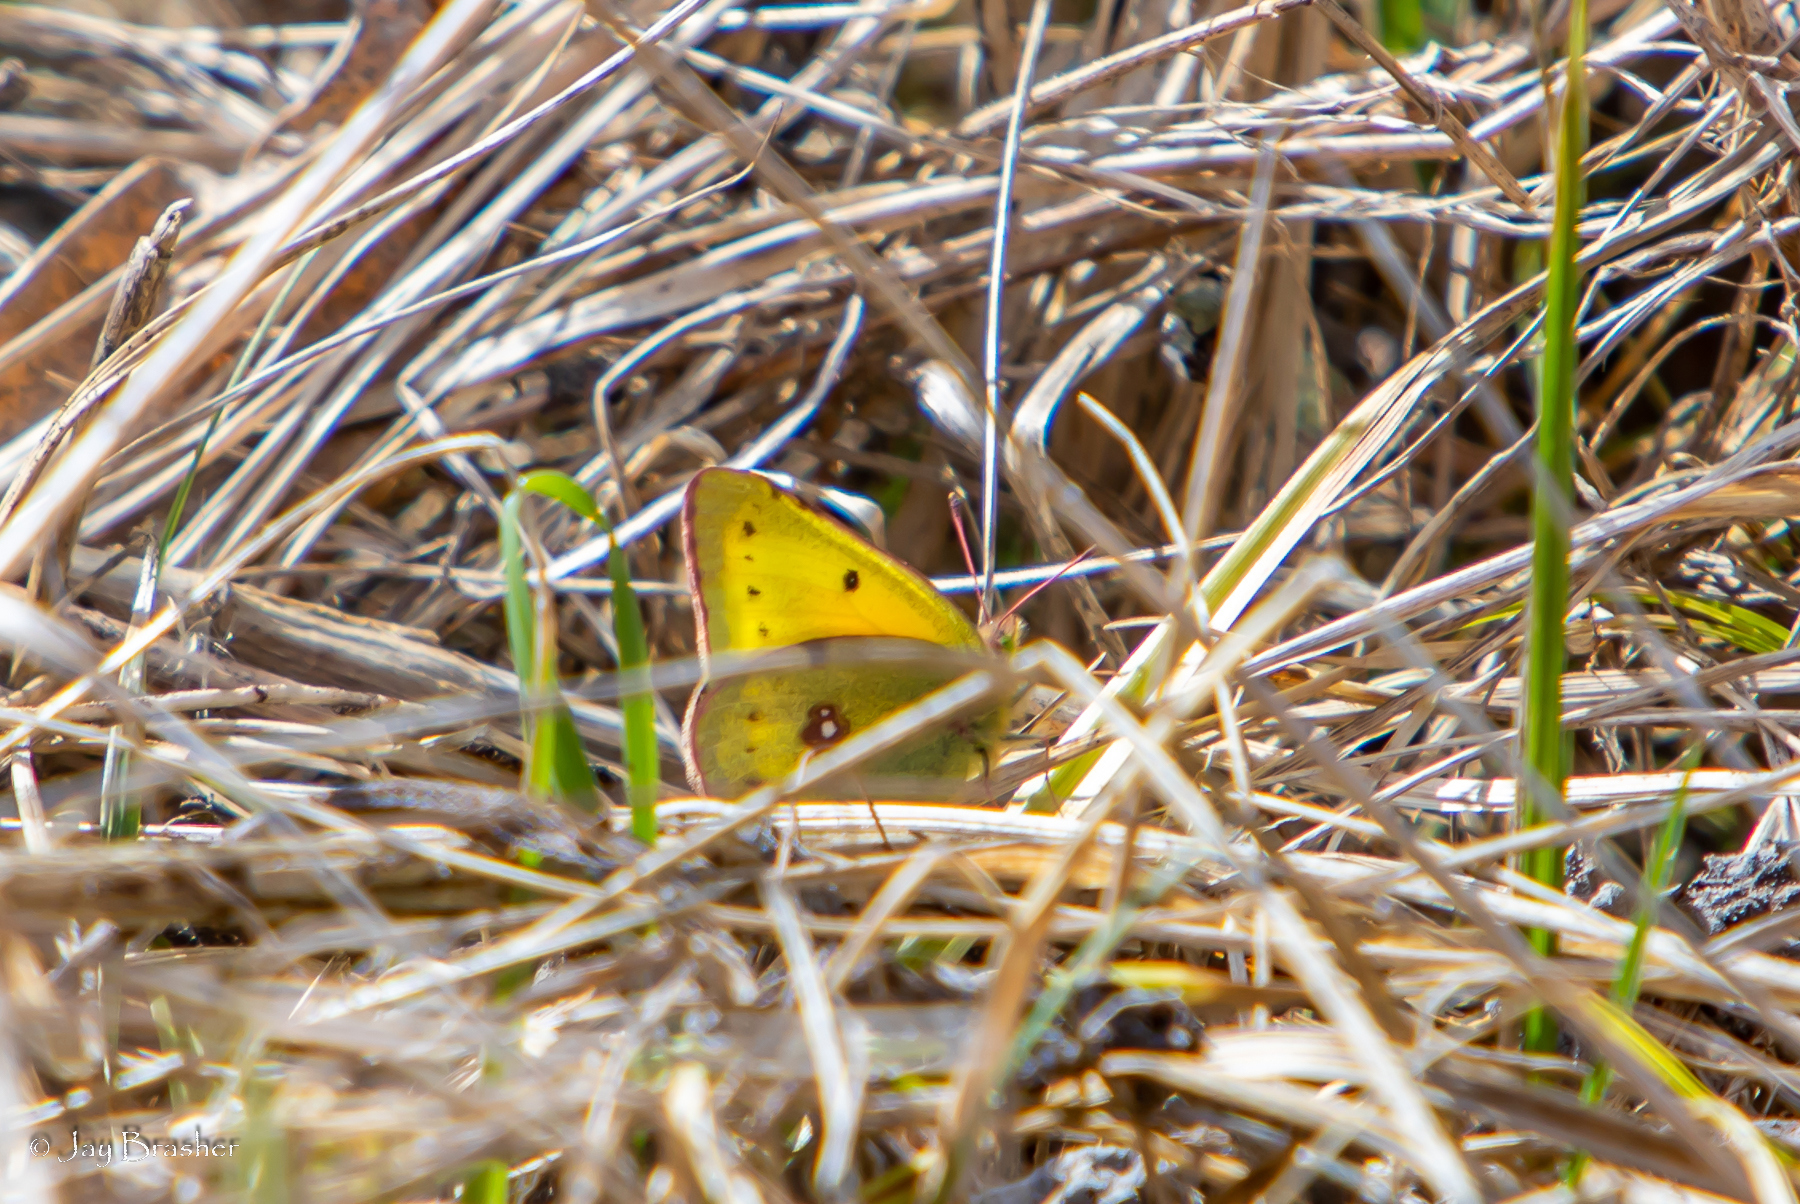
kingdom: Animalia
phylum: Arthropoda
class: Insecta
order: Lepidoptera
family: Pieridae
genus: Colias
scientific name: Colias eurytheme
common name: Alfalfa butterfly
